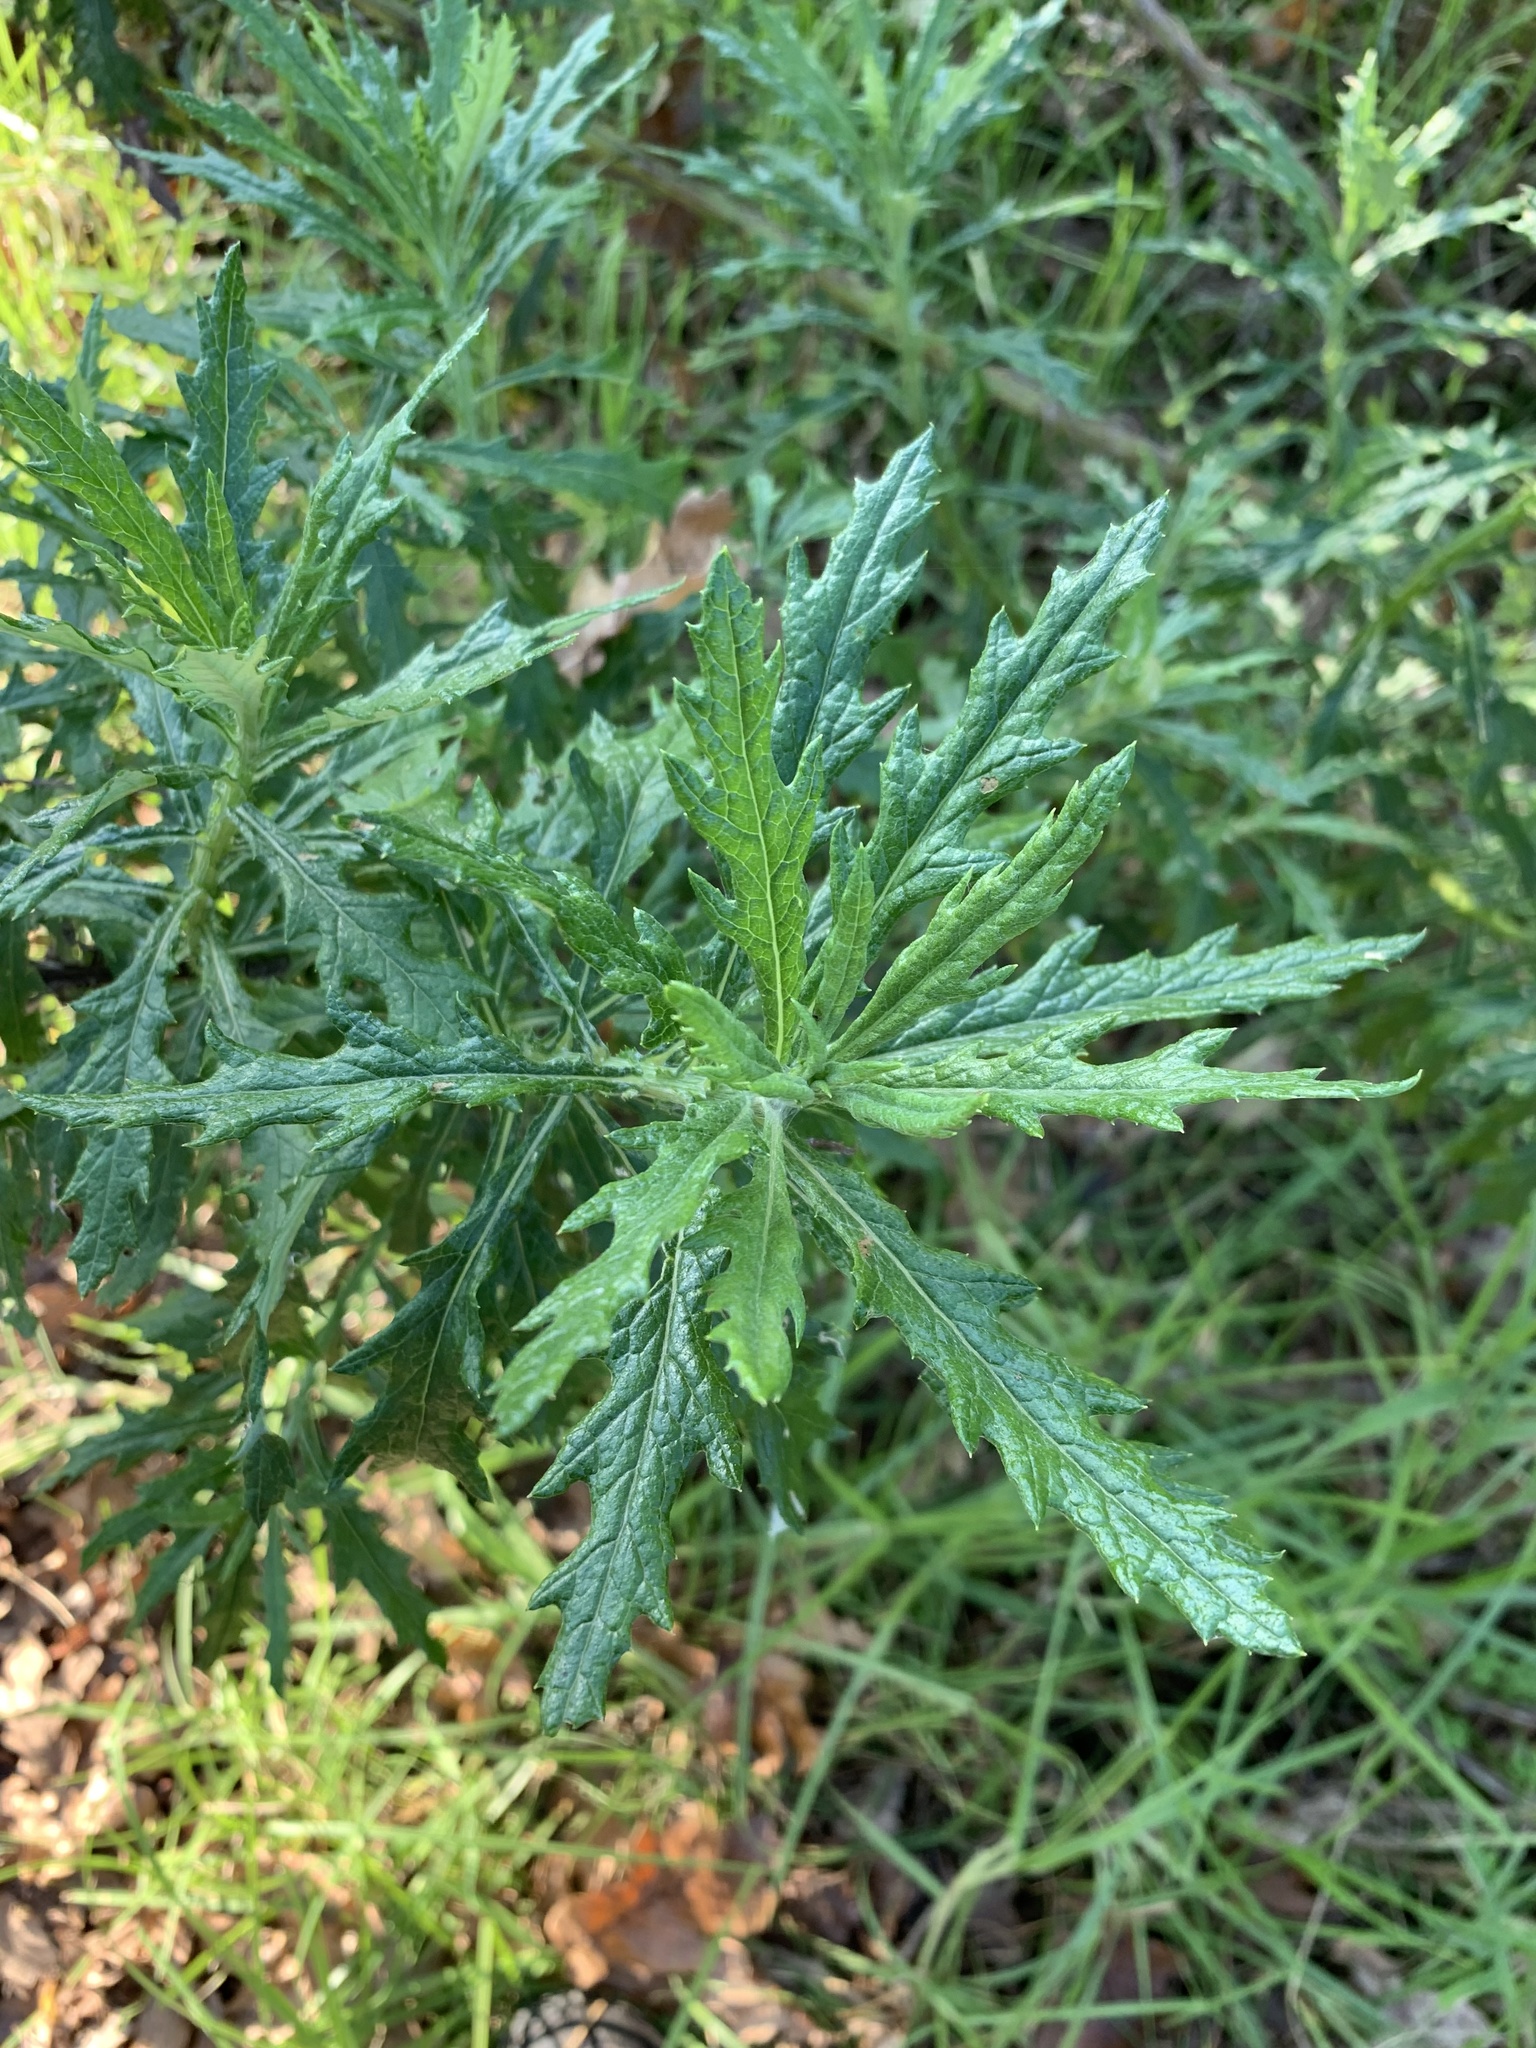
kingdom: Plantae
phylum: Tracheophyta
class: Magnoliopsida
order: Asterales
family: Asteraceae
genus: Senecio
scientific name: Senecio pterophorus
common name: Shoddy ragwort
